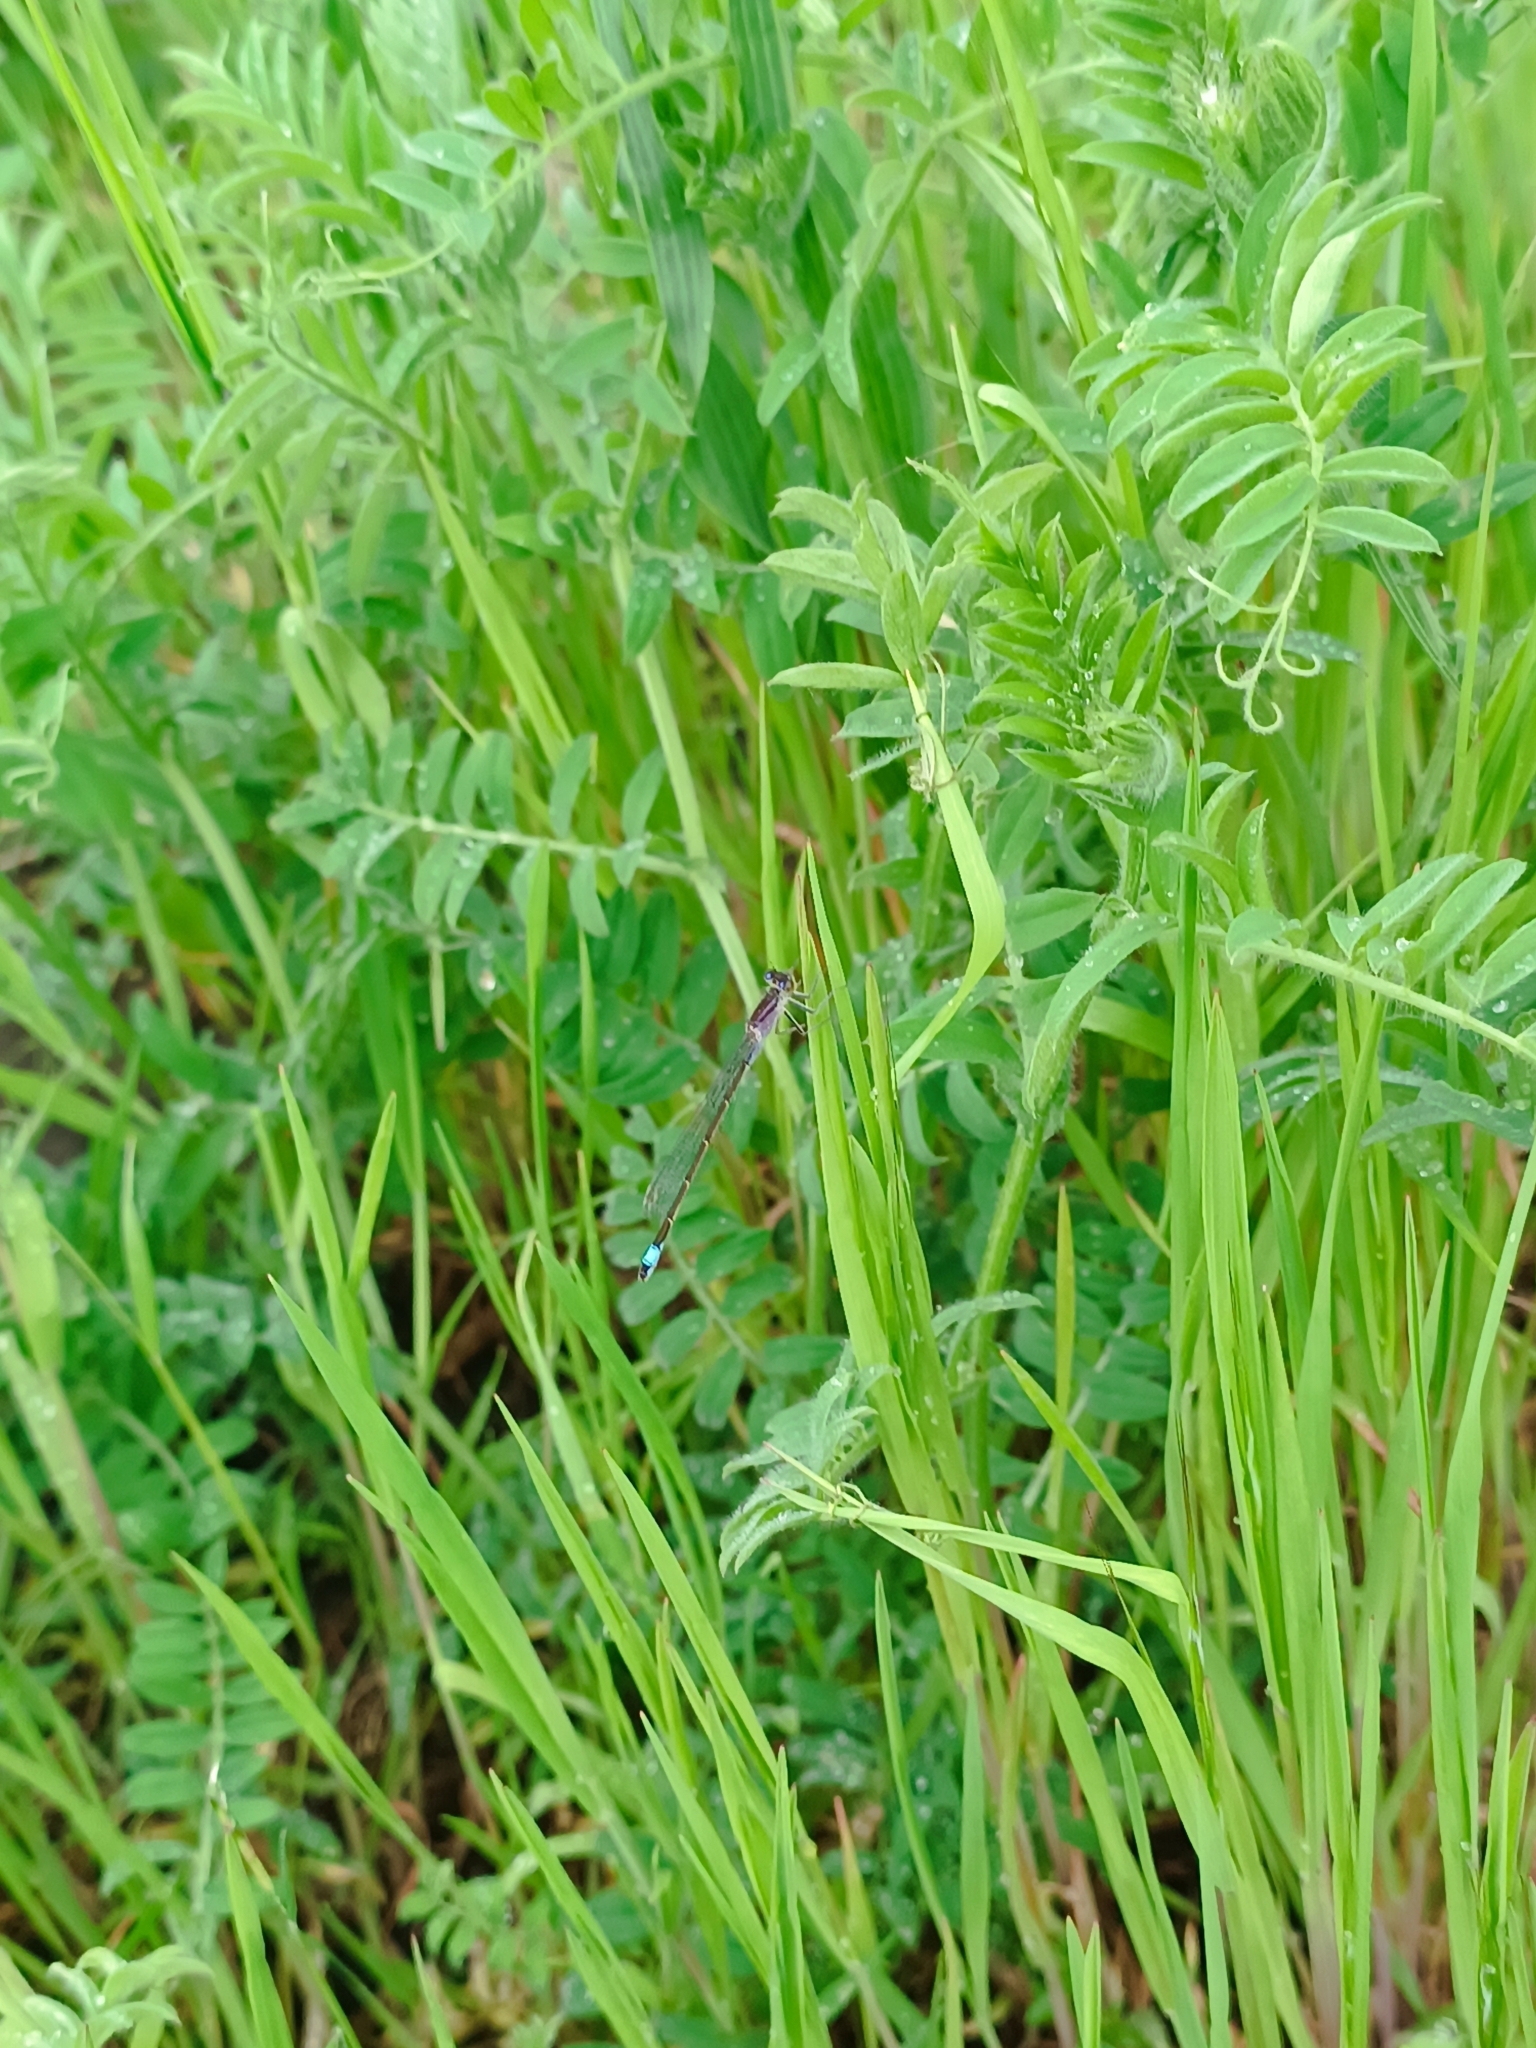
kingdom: Animalia
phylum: Arthropoda
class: Insecta
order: Odonata
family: Coenagrionidae
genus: Ischnura
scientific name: Ischnura elegans
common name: Blue-tailed damselfly
